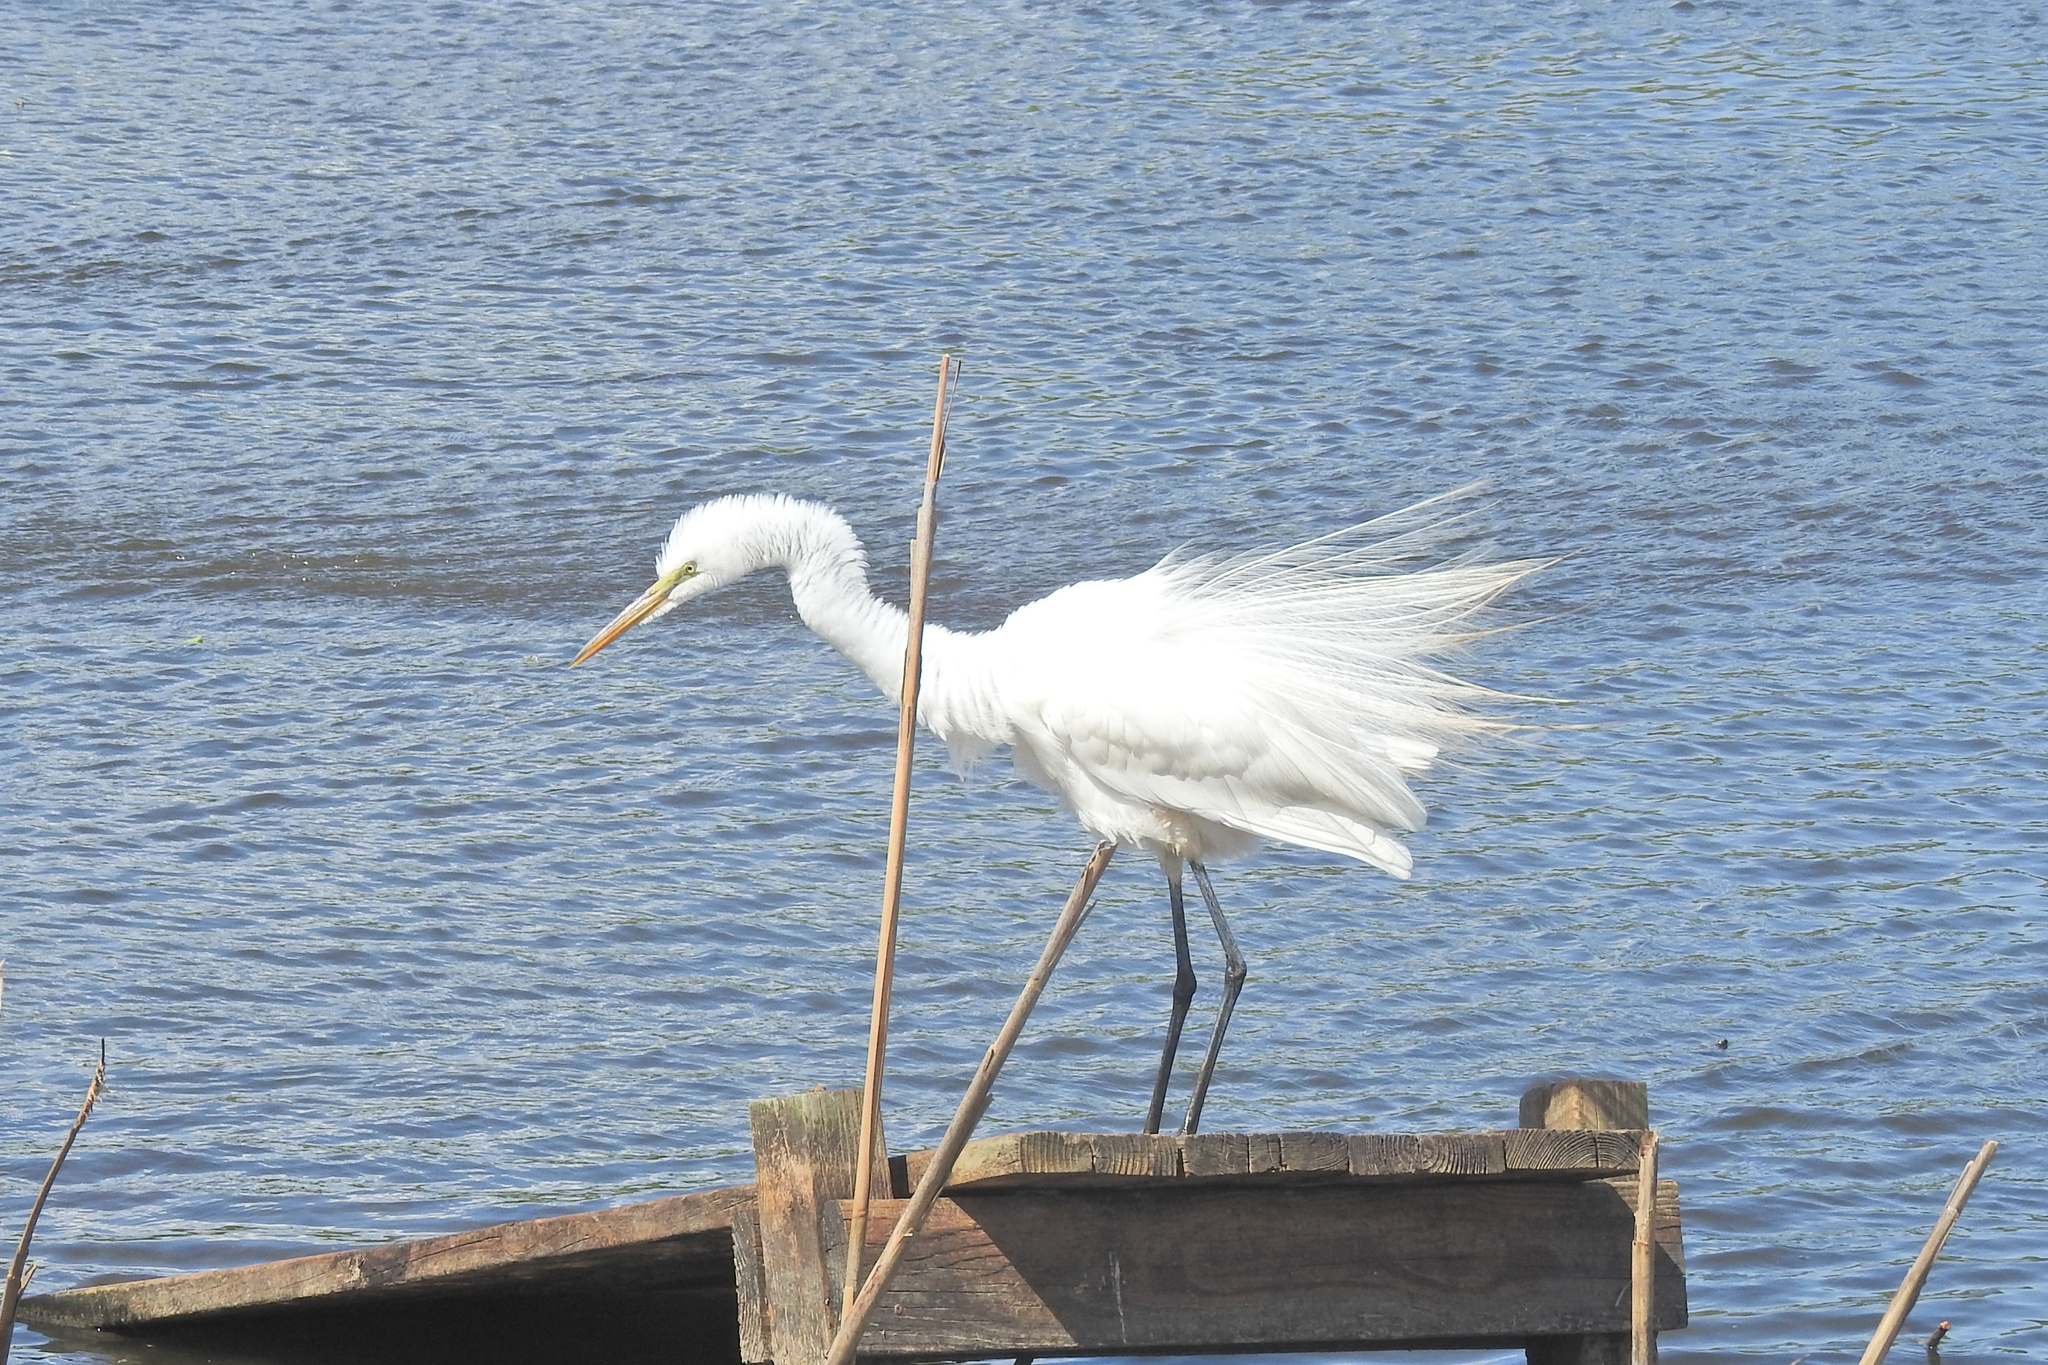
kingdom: Animalia
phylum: Chordata
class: Aves
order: Pelecaniformes
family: Ardeidae
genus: Ardea
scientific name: Ardea alba
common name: Great egret
